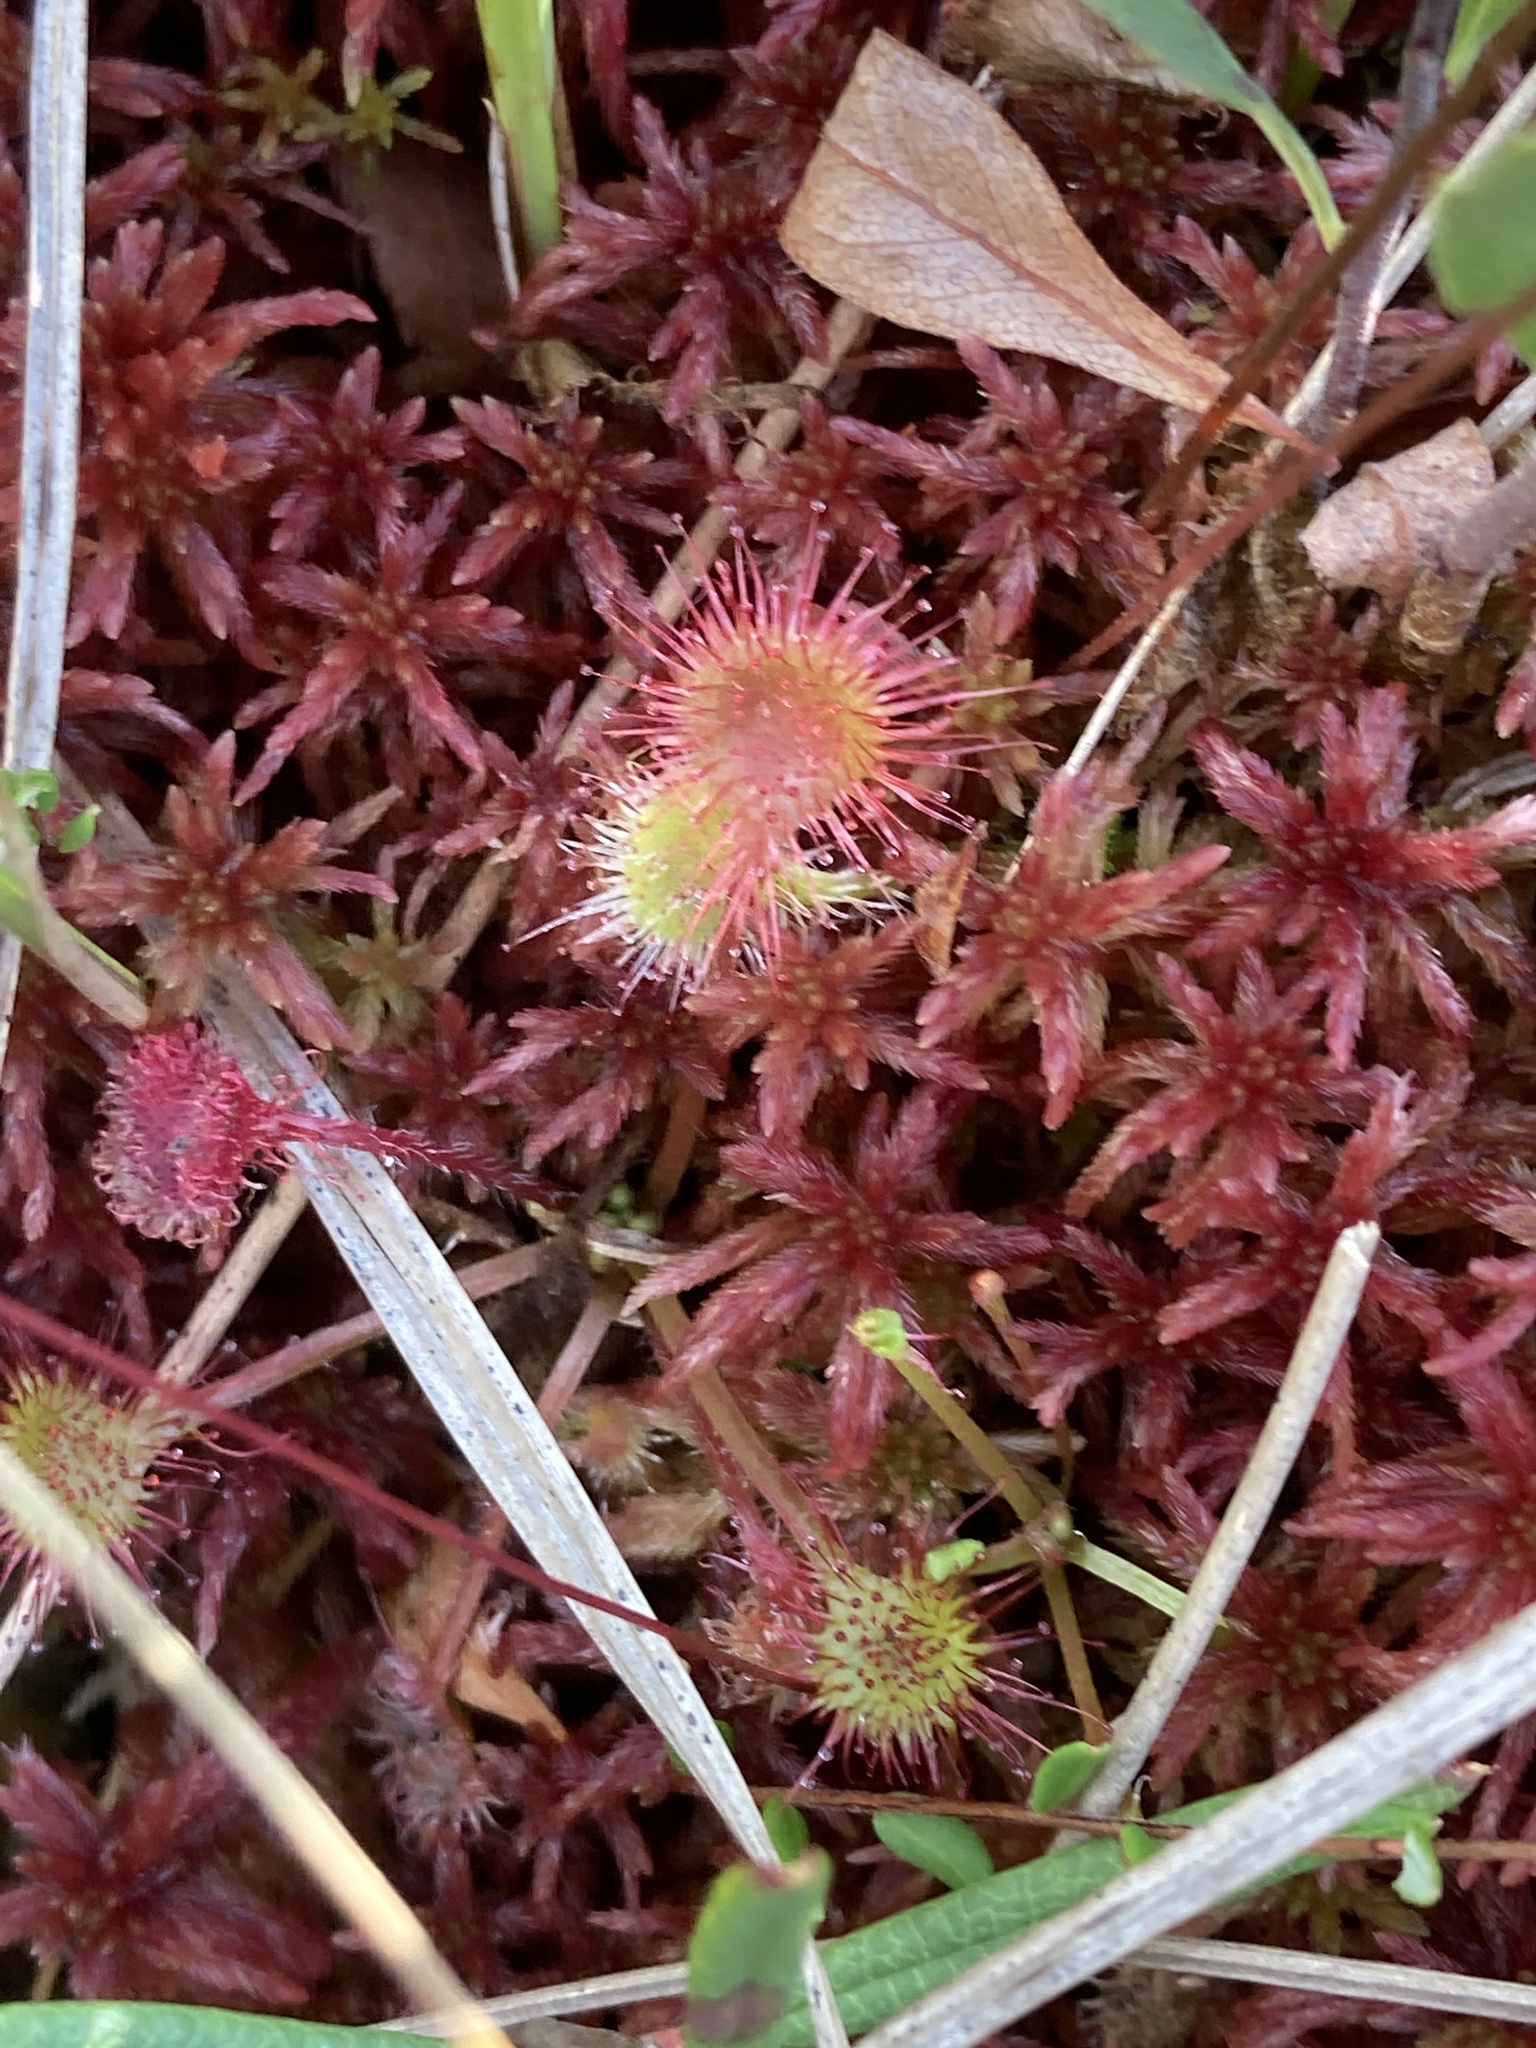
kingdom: Plantae
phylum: Tracheophyta
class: Magnoliopsida
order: Caryophyllales
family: Droseraceae
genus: Drosera
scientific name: Drosera rotundifolia
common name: Round-leaved sundew
